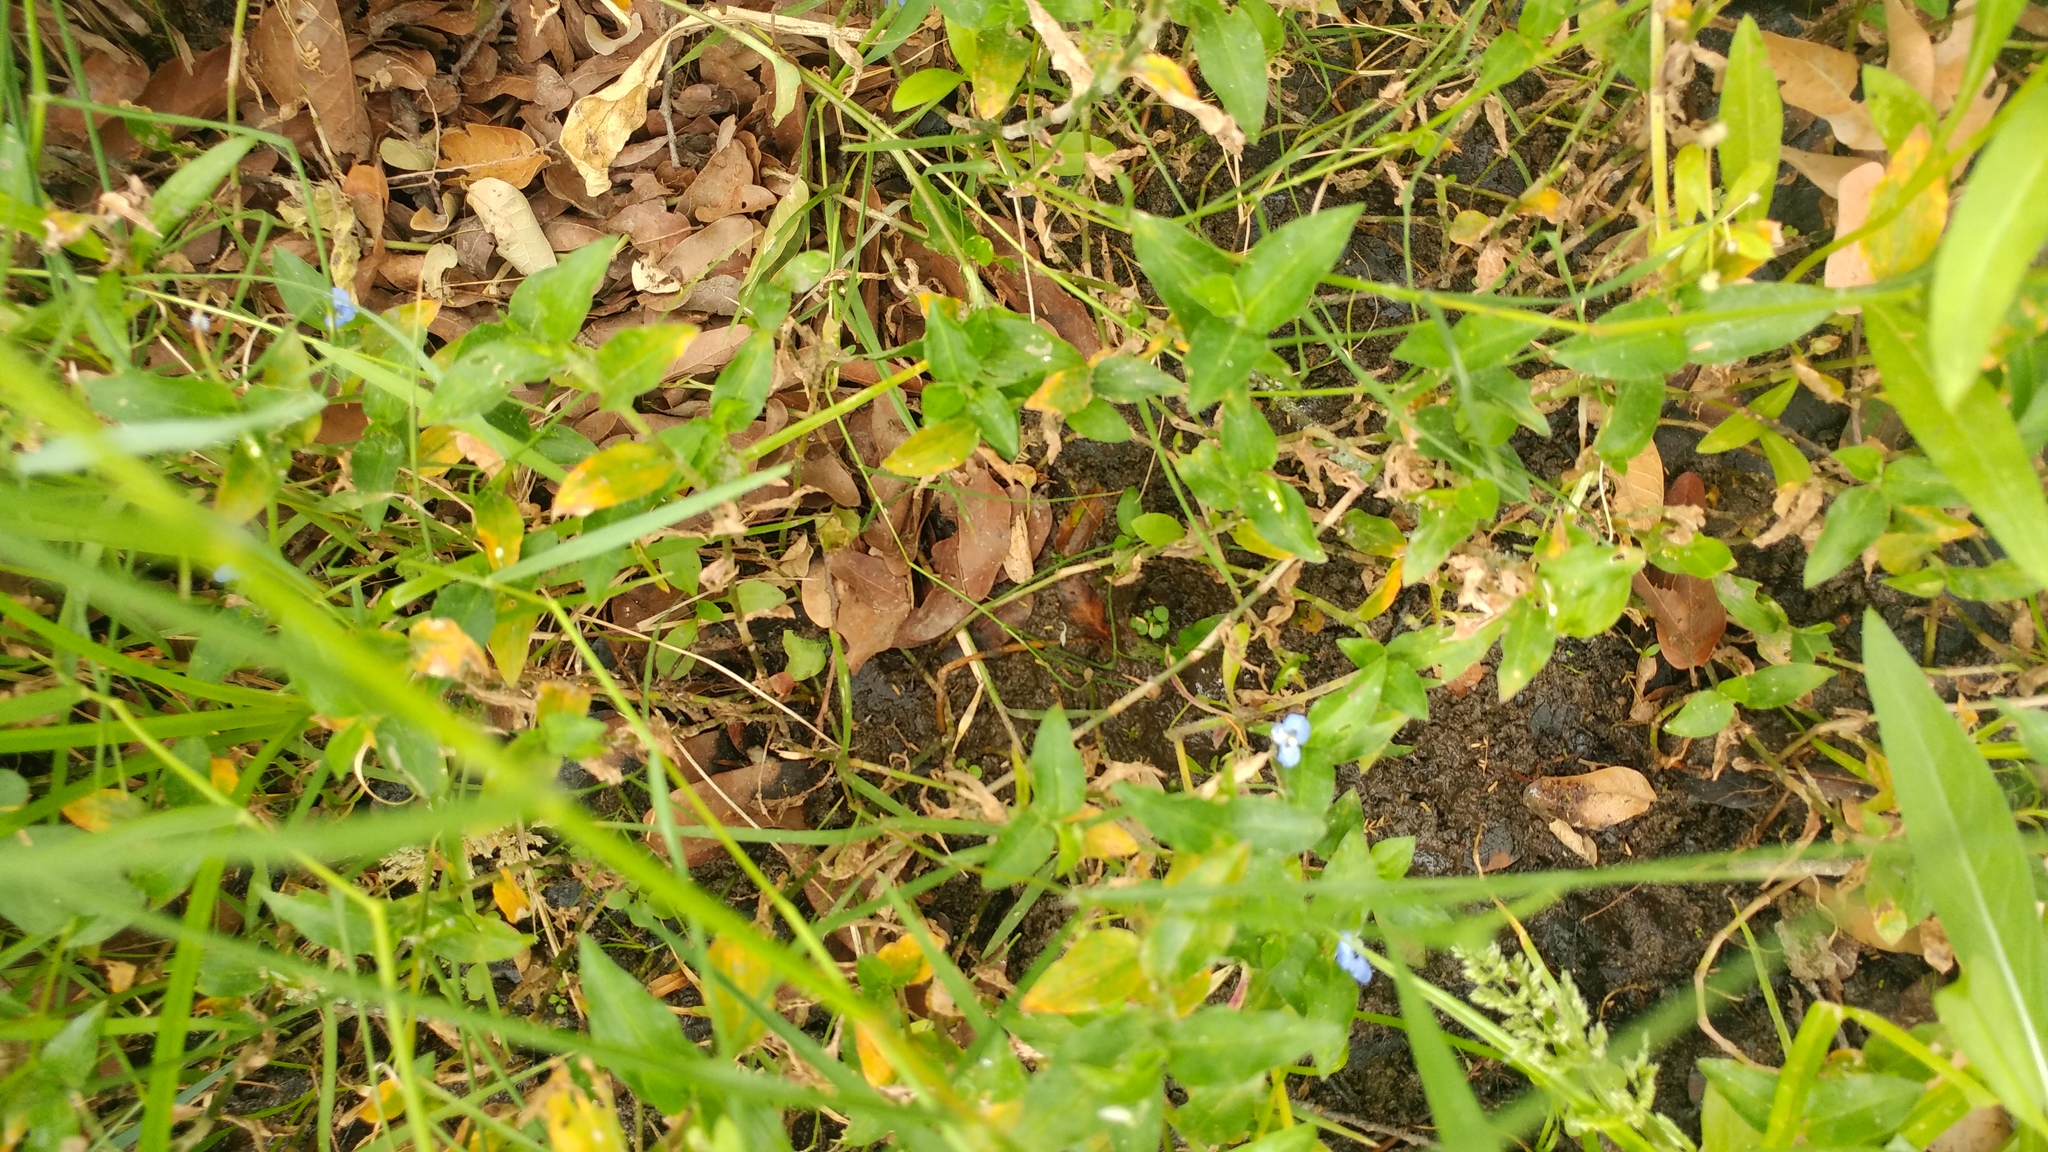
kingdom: Plantae
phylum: Tracheophyta
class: Liliopsida
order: Commelinales
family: Commelinaceae
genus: Commelina
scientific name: Commelina erecta
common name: Blousel blommetjie
